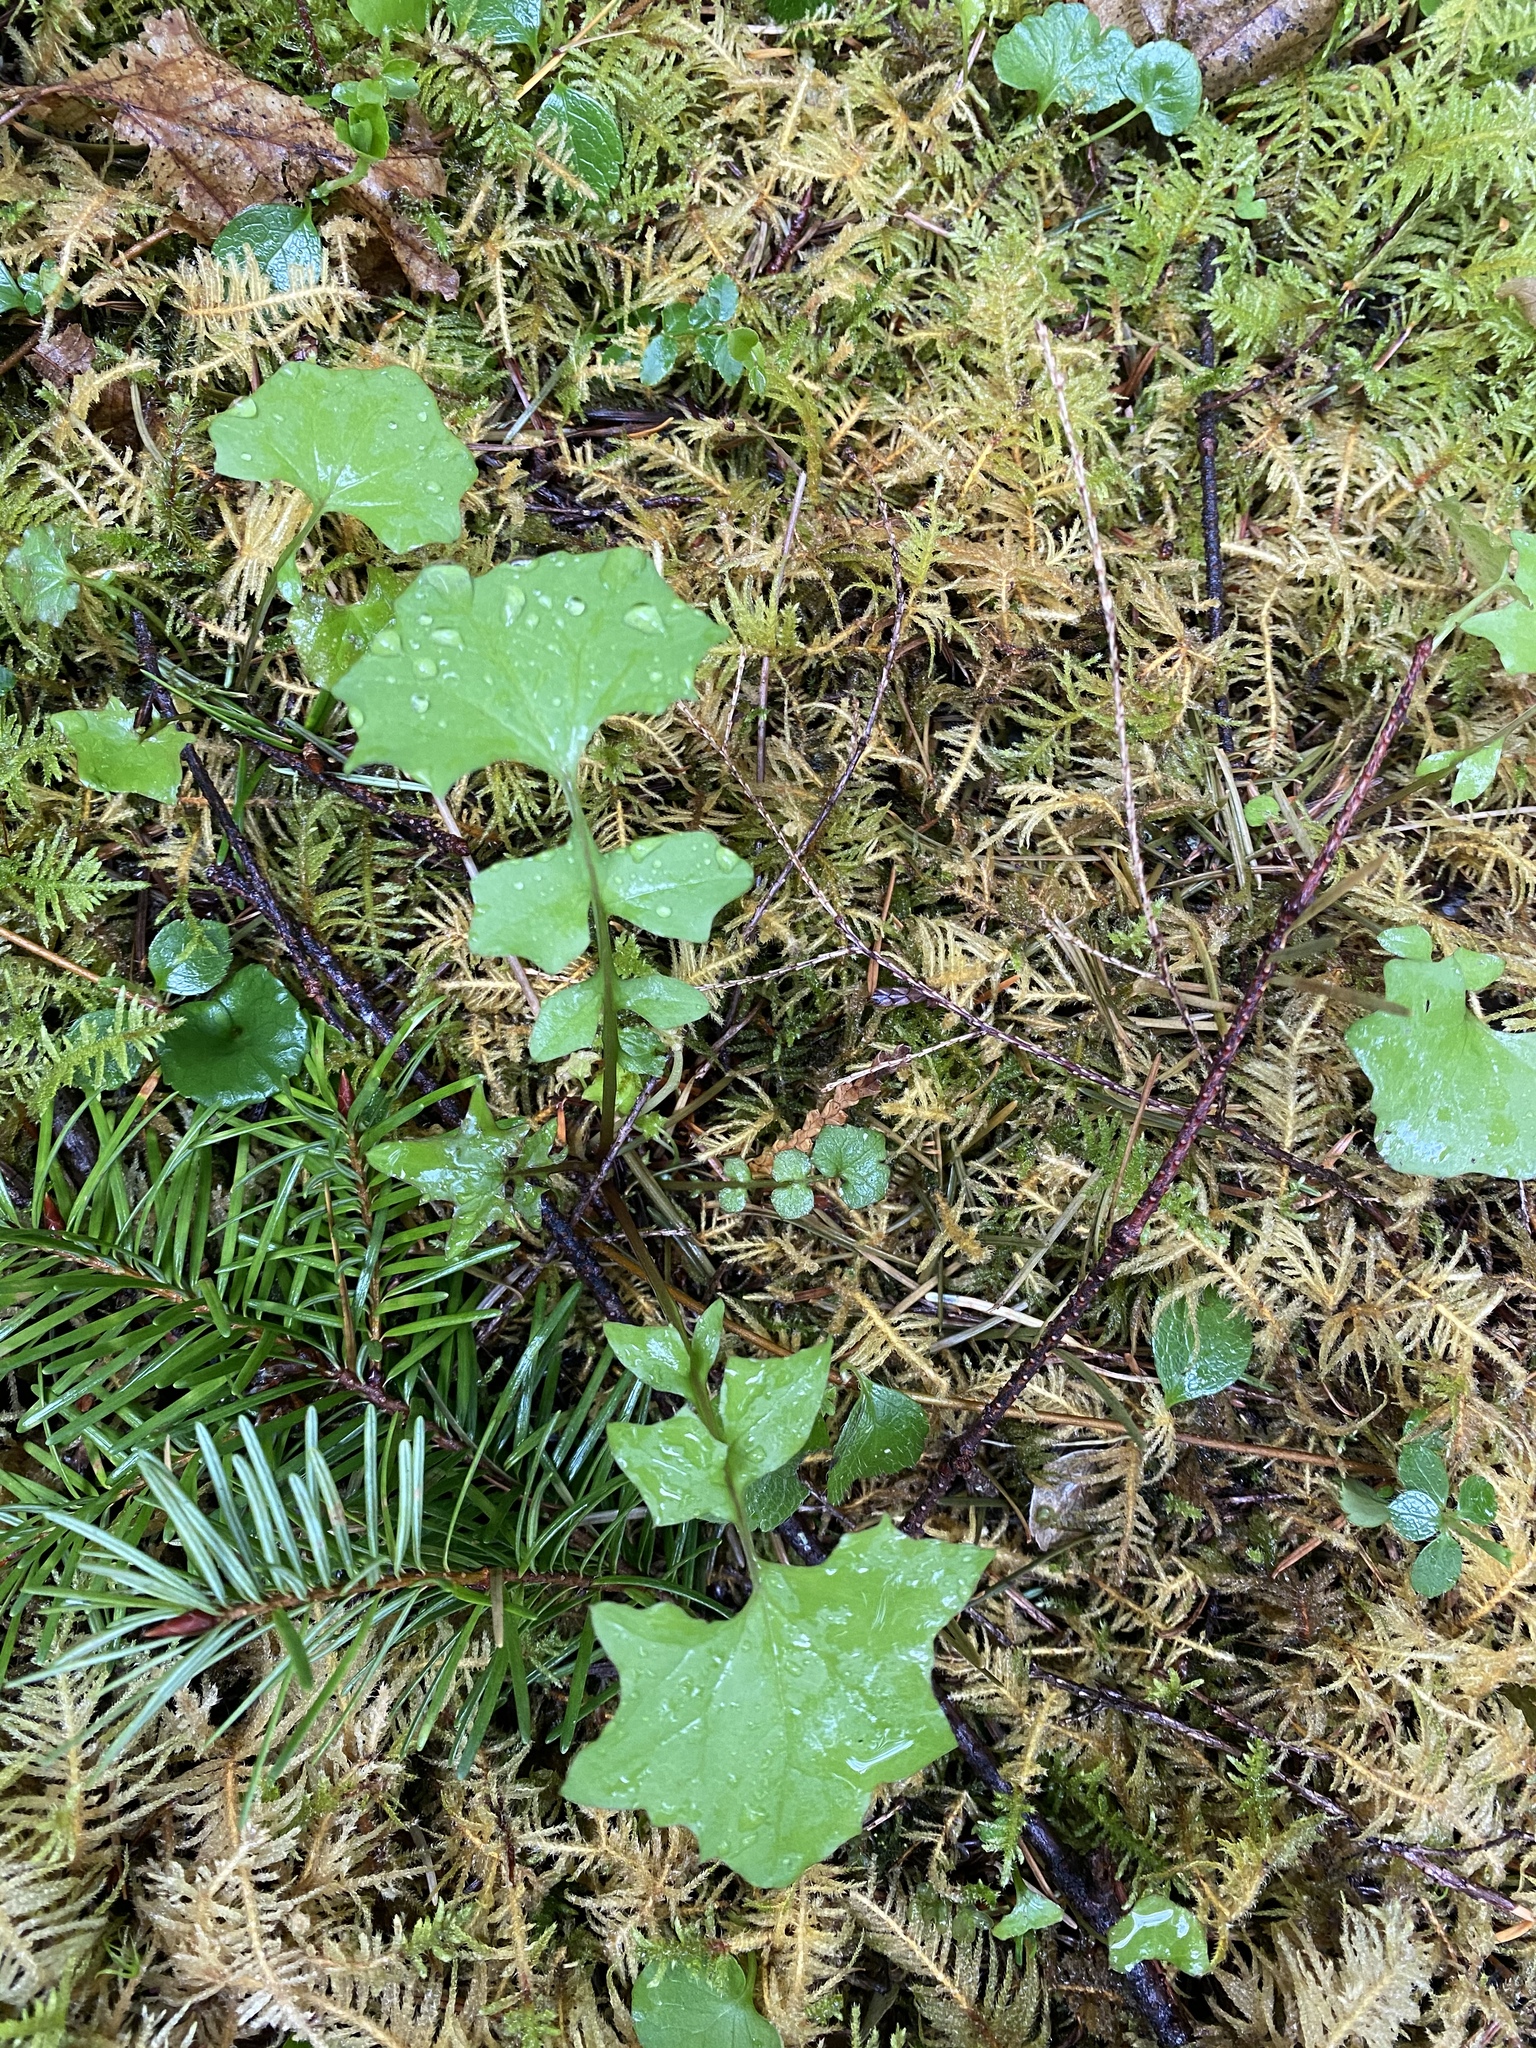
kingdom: Plantae
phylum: Tracheophyta
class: Magnoliopsida
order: Asterales
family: Asteraceae
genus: Mycelis
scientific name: Mycelis muralis
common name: Wall lettuce
